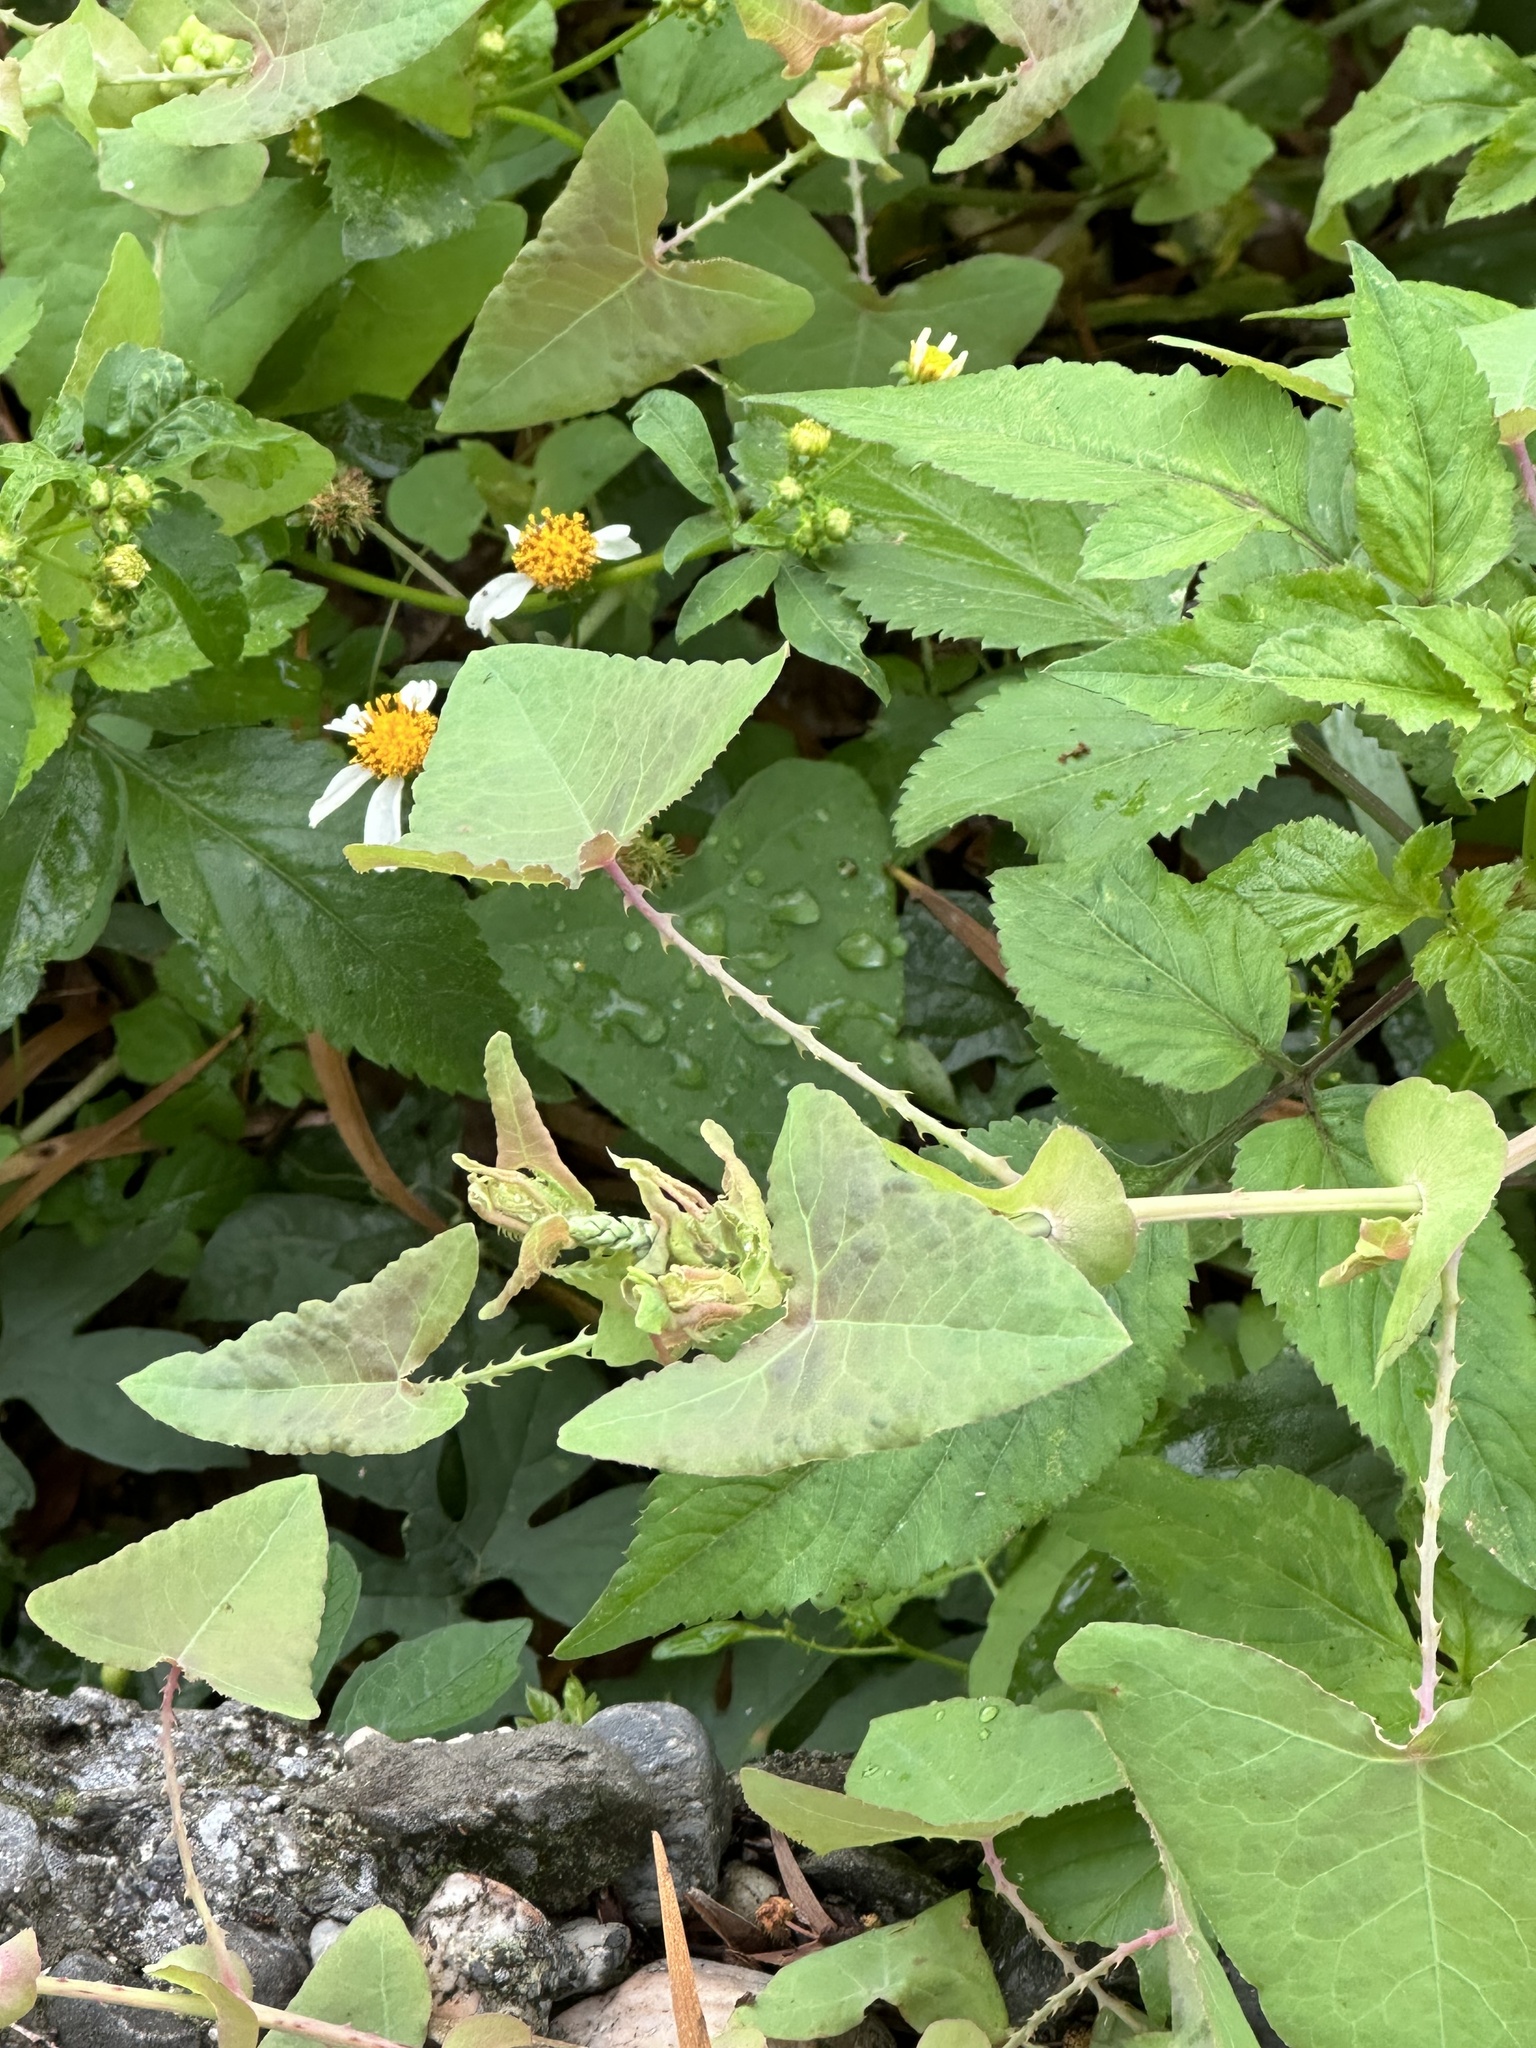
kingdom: Plantae
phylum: Tracheophyta
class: Magnoliopsida
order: Caryophyllales
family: Polygonaceae
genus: Persicaria
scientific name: Persicaria perfoliata
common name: Asiatic tearthumb
